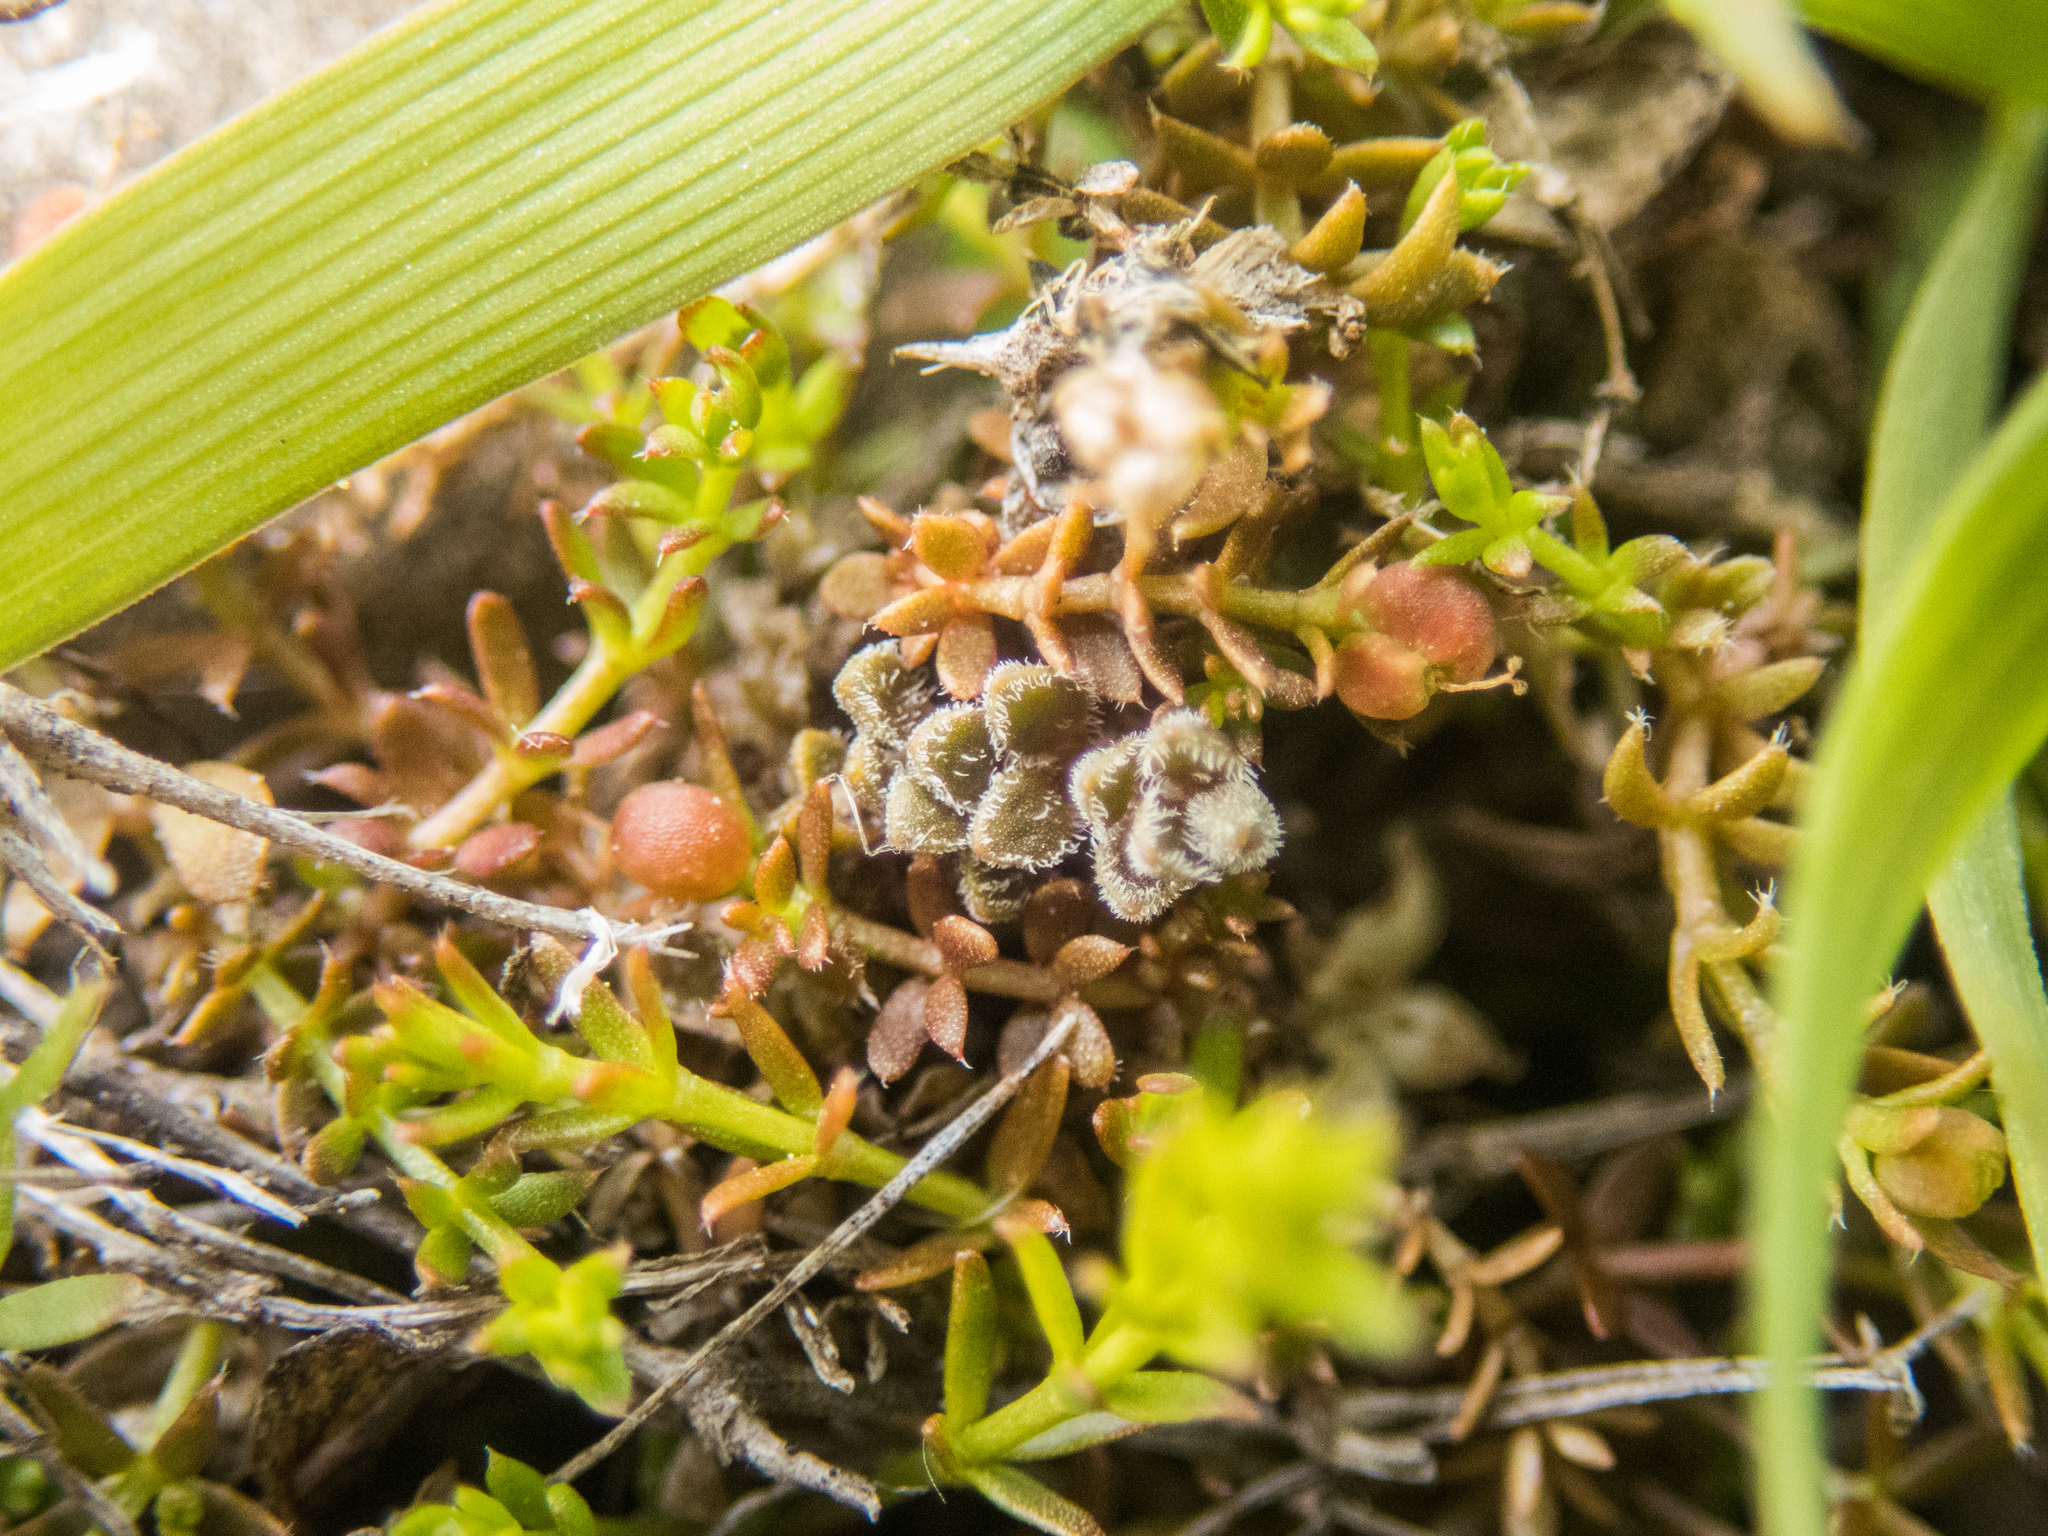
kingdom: Plantae
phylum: Tracheophyta
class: Magnoliopsida
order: Lamiales
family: Plantaginaceae
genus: Veronica
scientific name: Veronica lilliputiana
